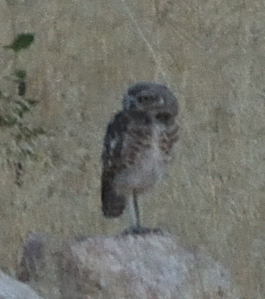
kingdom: Animalia
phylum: Chordata
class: Aves
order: Strigiformes
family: Strigidae
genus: Athene
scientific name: Athene cunicularia
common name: Burrowing owl
